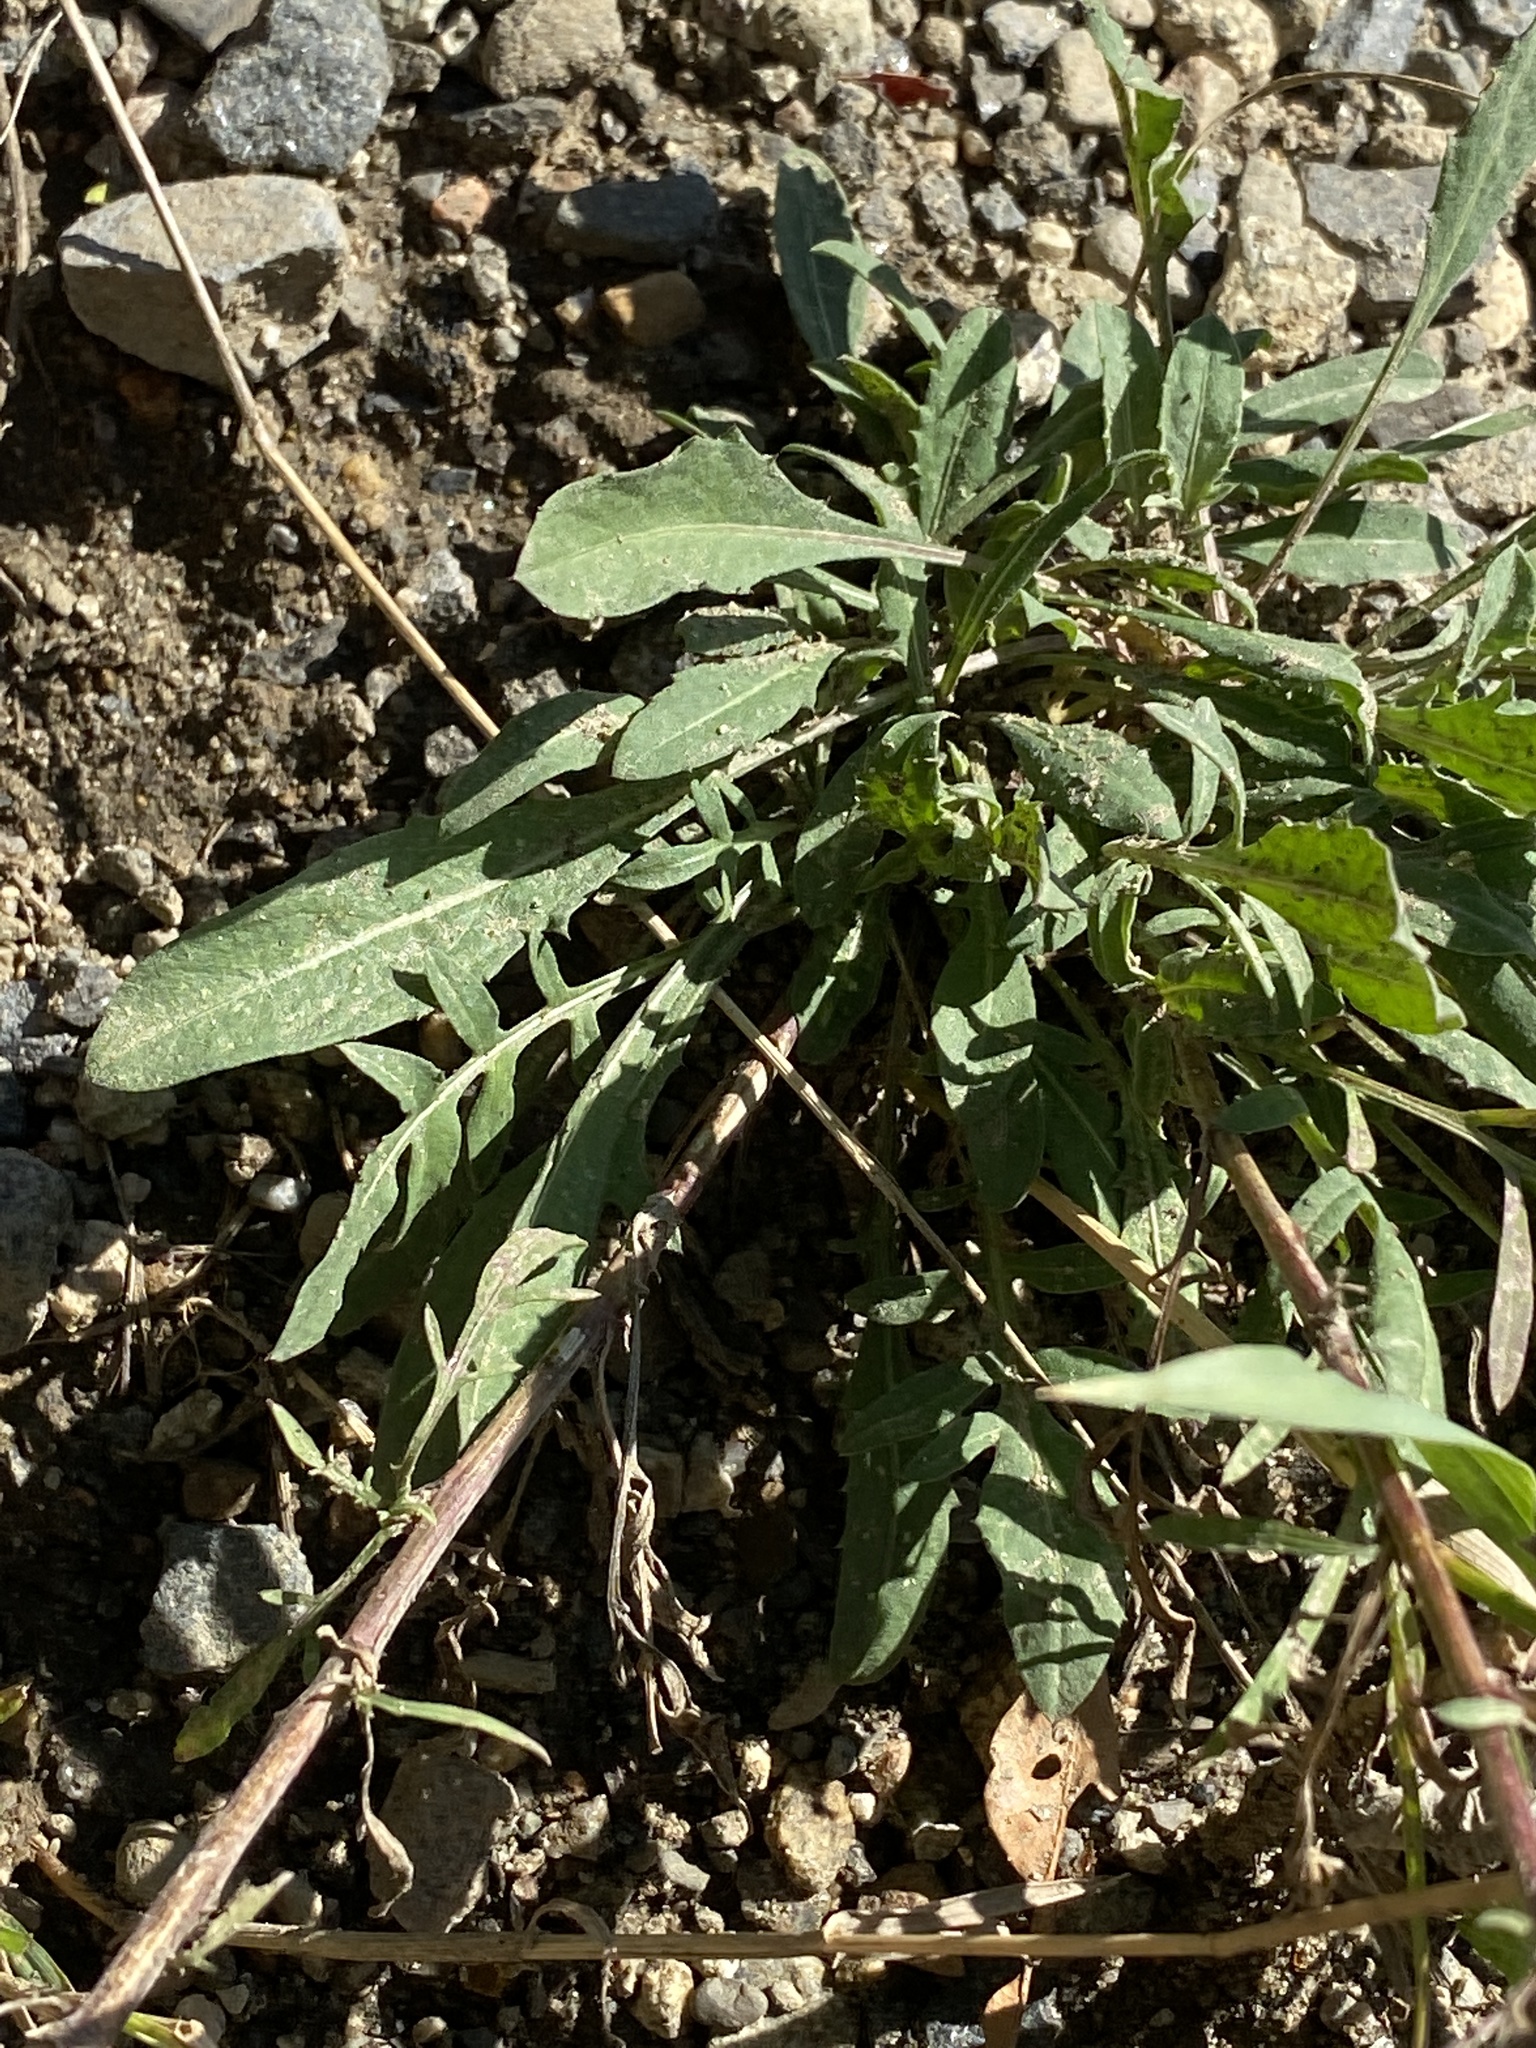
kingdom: Plantae
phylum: Tracheophyta
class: Magnoliopsida
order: Asterales
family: Asteraceae
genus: Centaurea
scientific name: Centaurea stoebe
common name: Spotted knapweed
